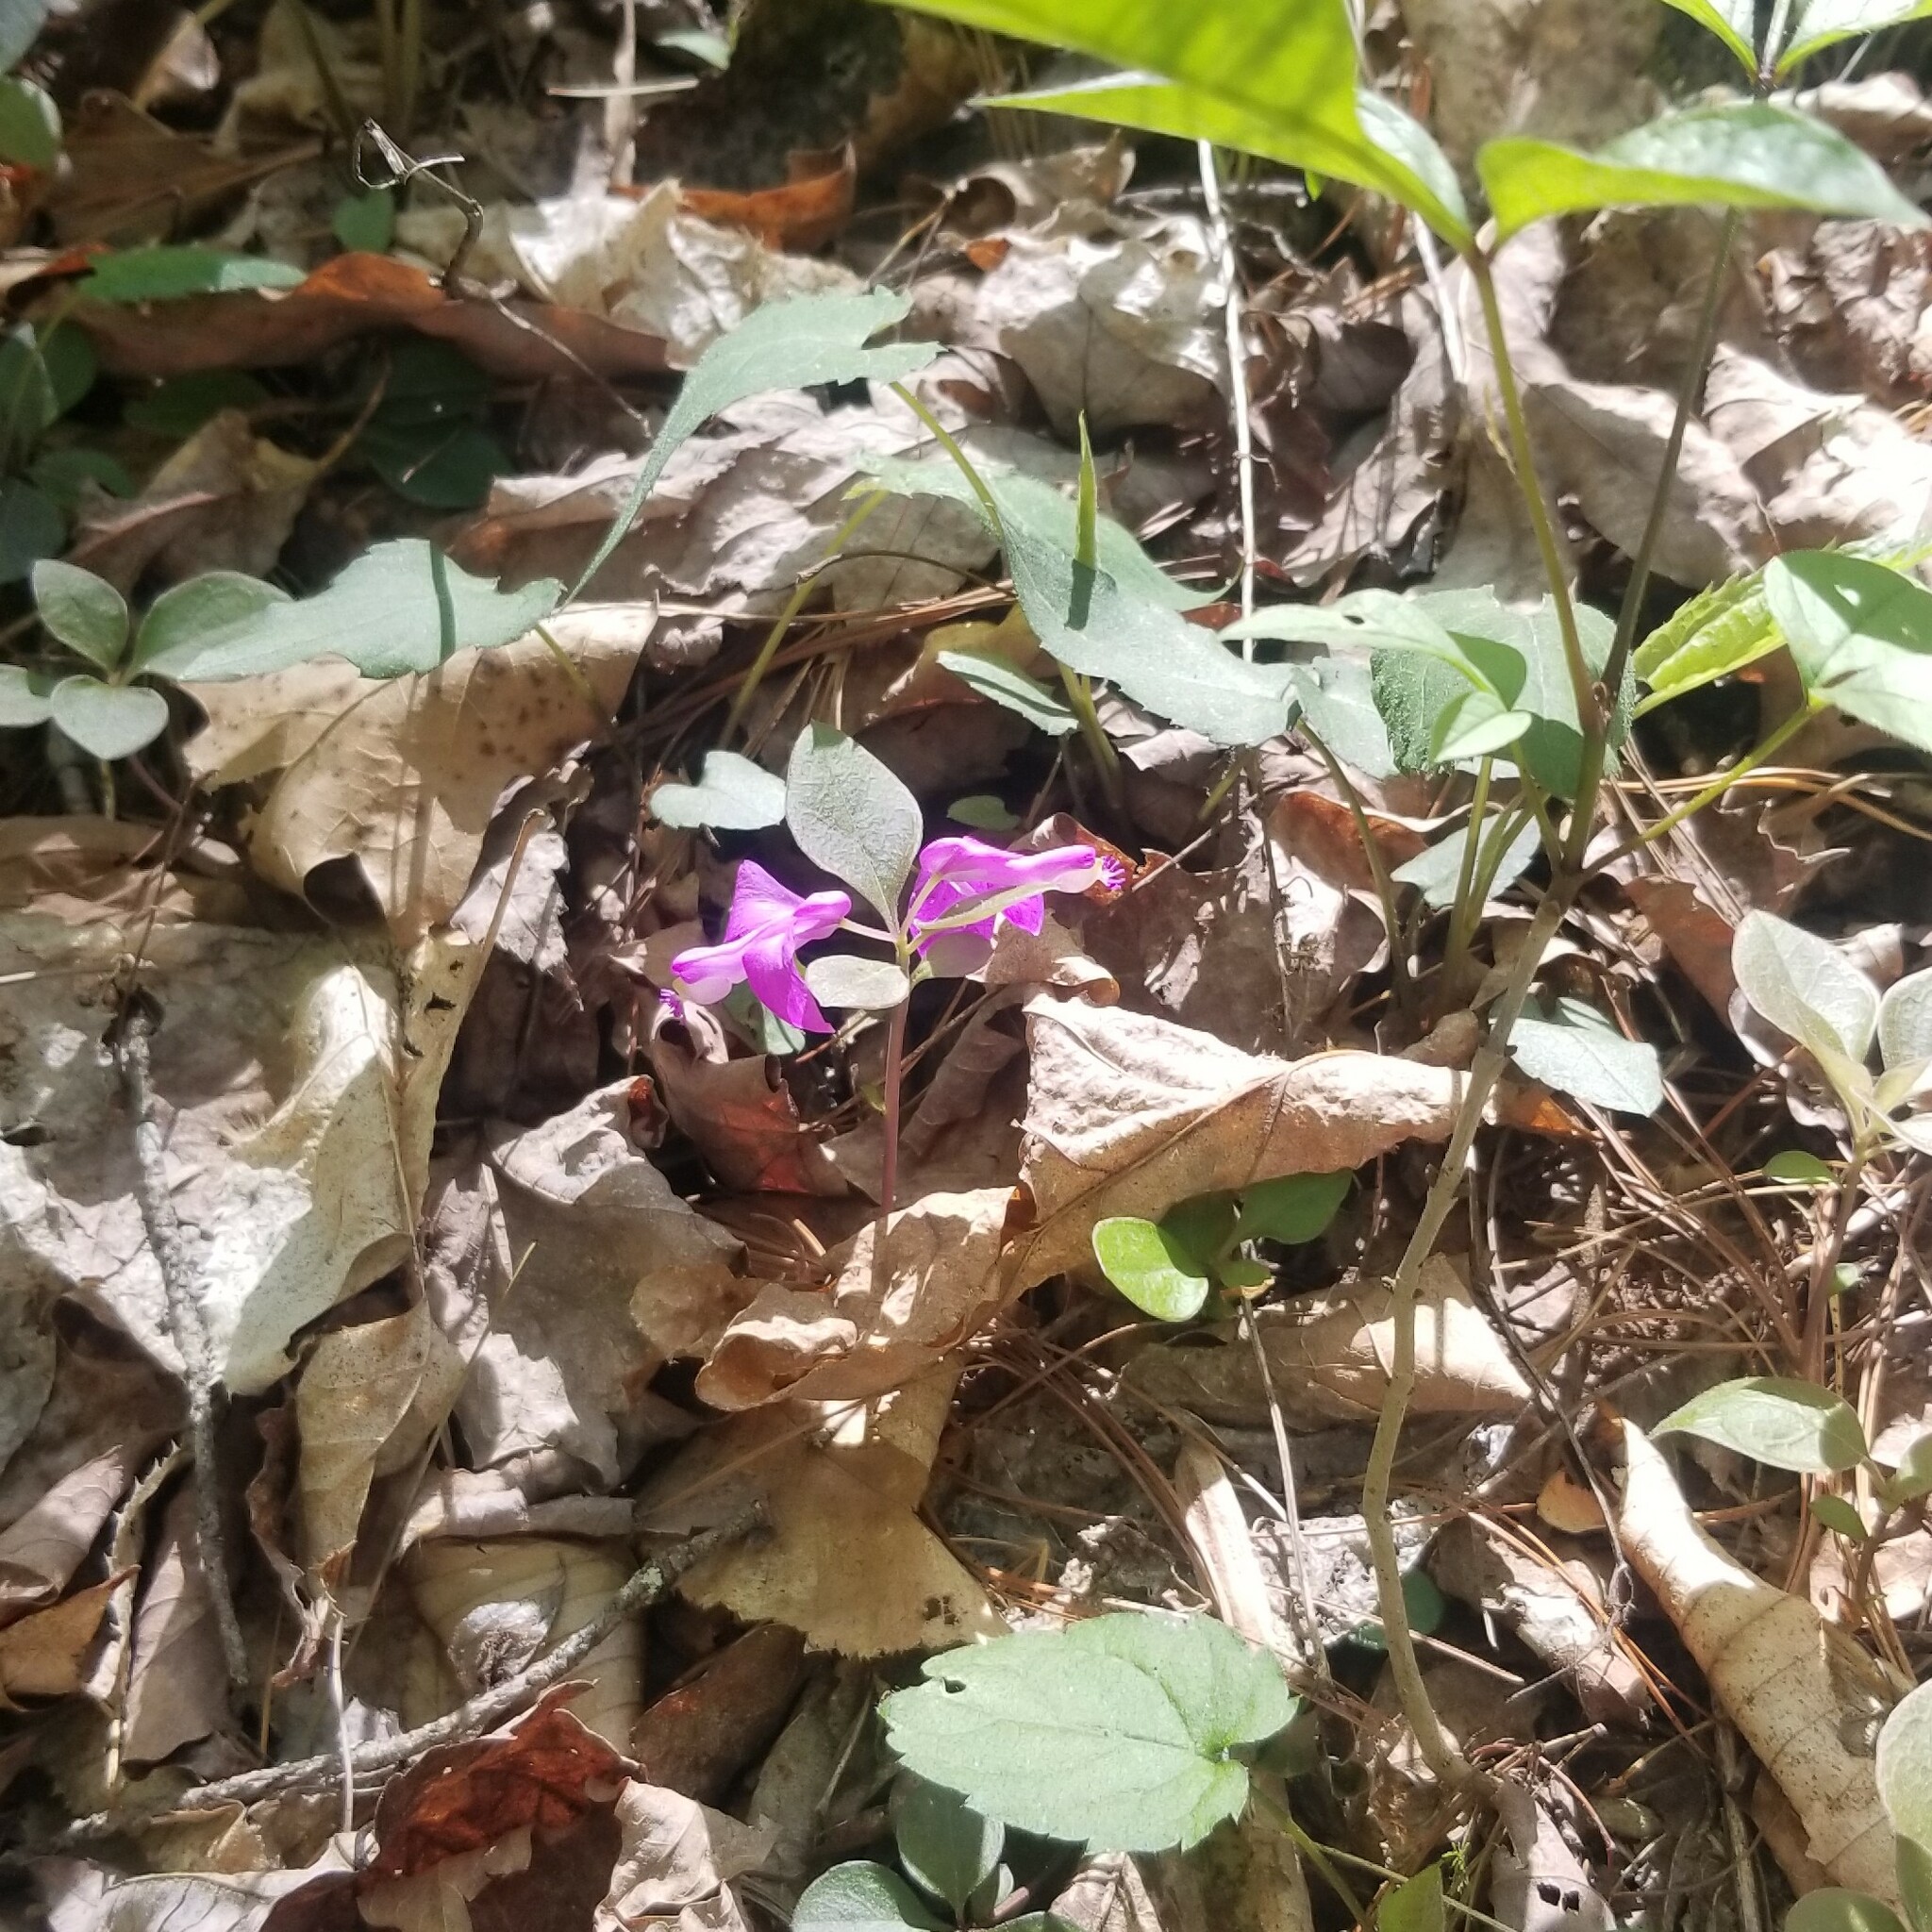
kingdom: Plantae
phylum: Tracheophyta
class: Magnoliopsida
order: Fabales
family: Polygalaceae
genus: Polygaloides
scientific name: Polygaloides paucifolia
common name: Bird-on-the-wing
